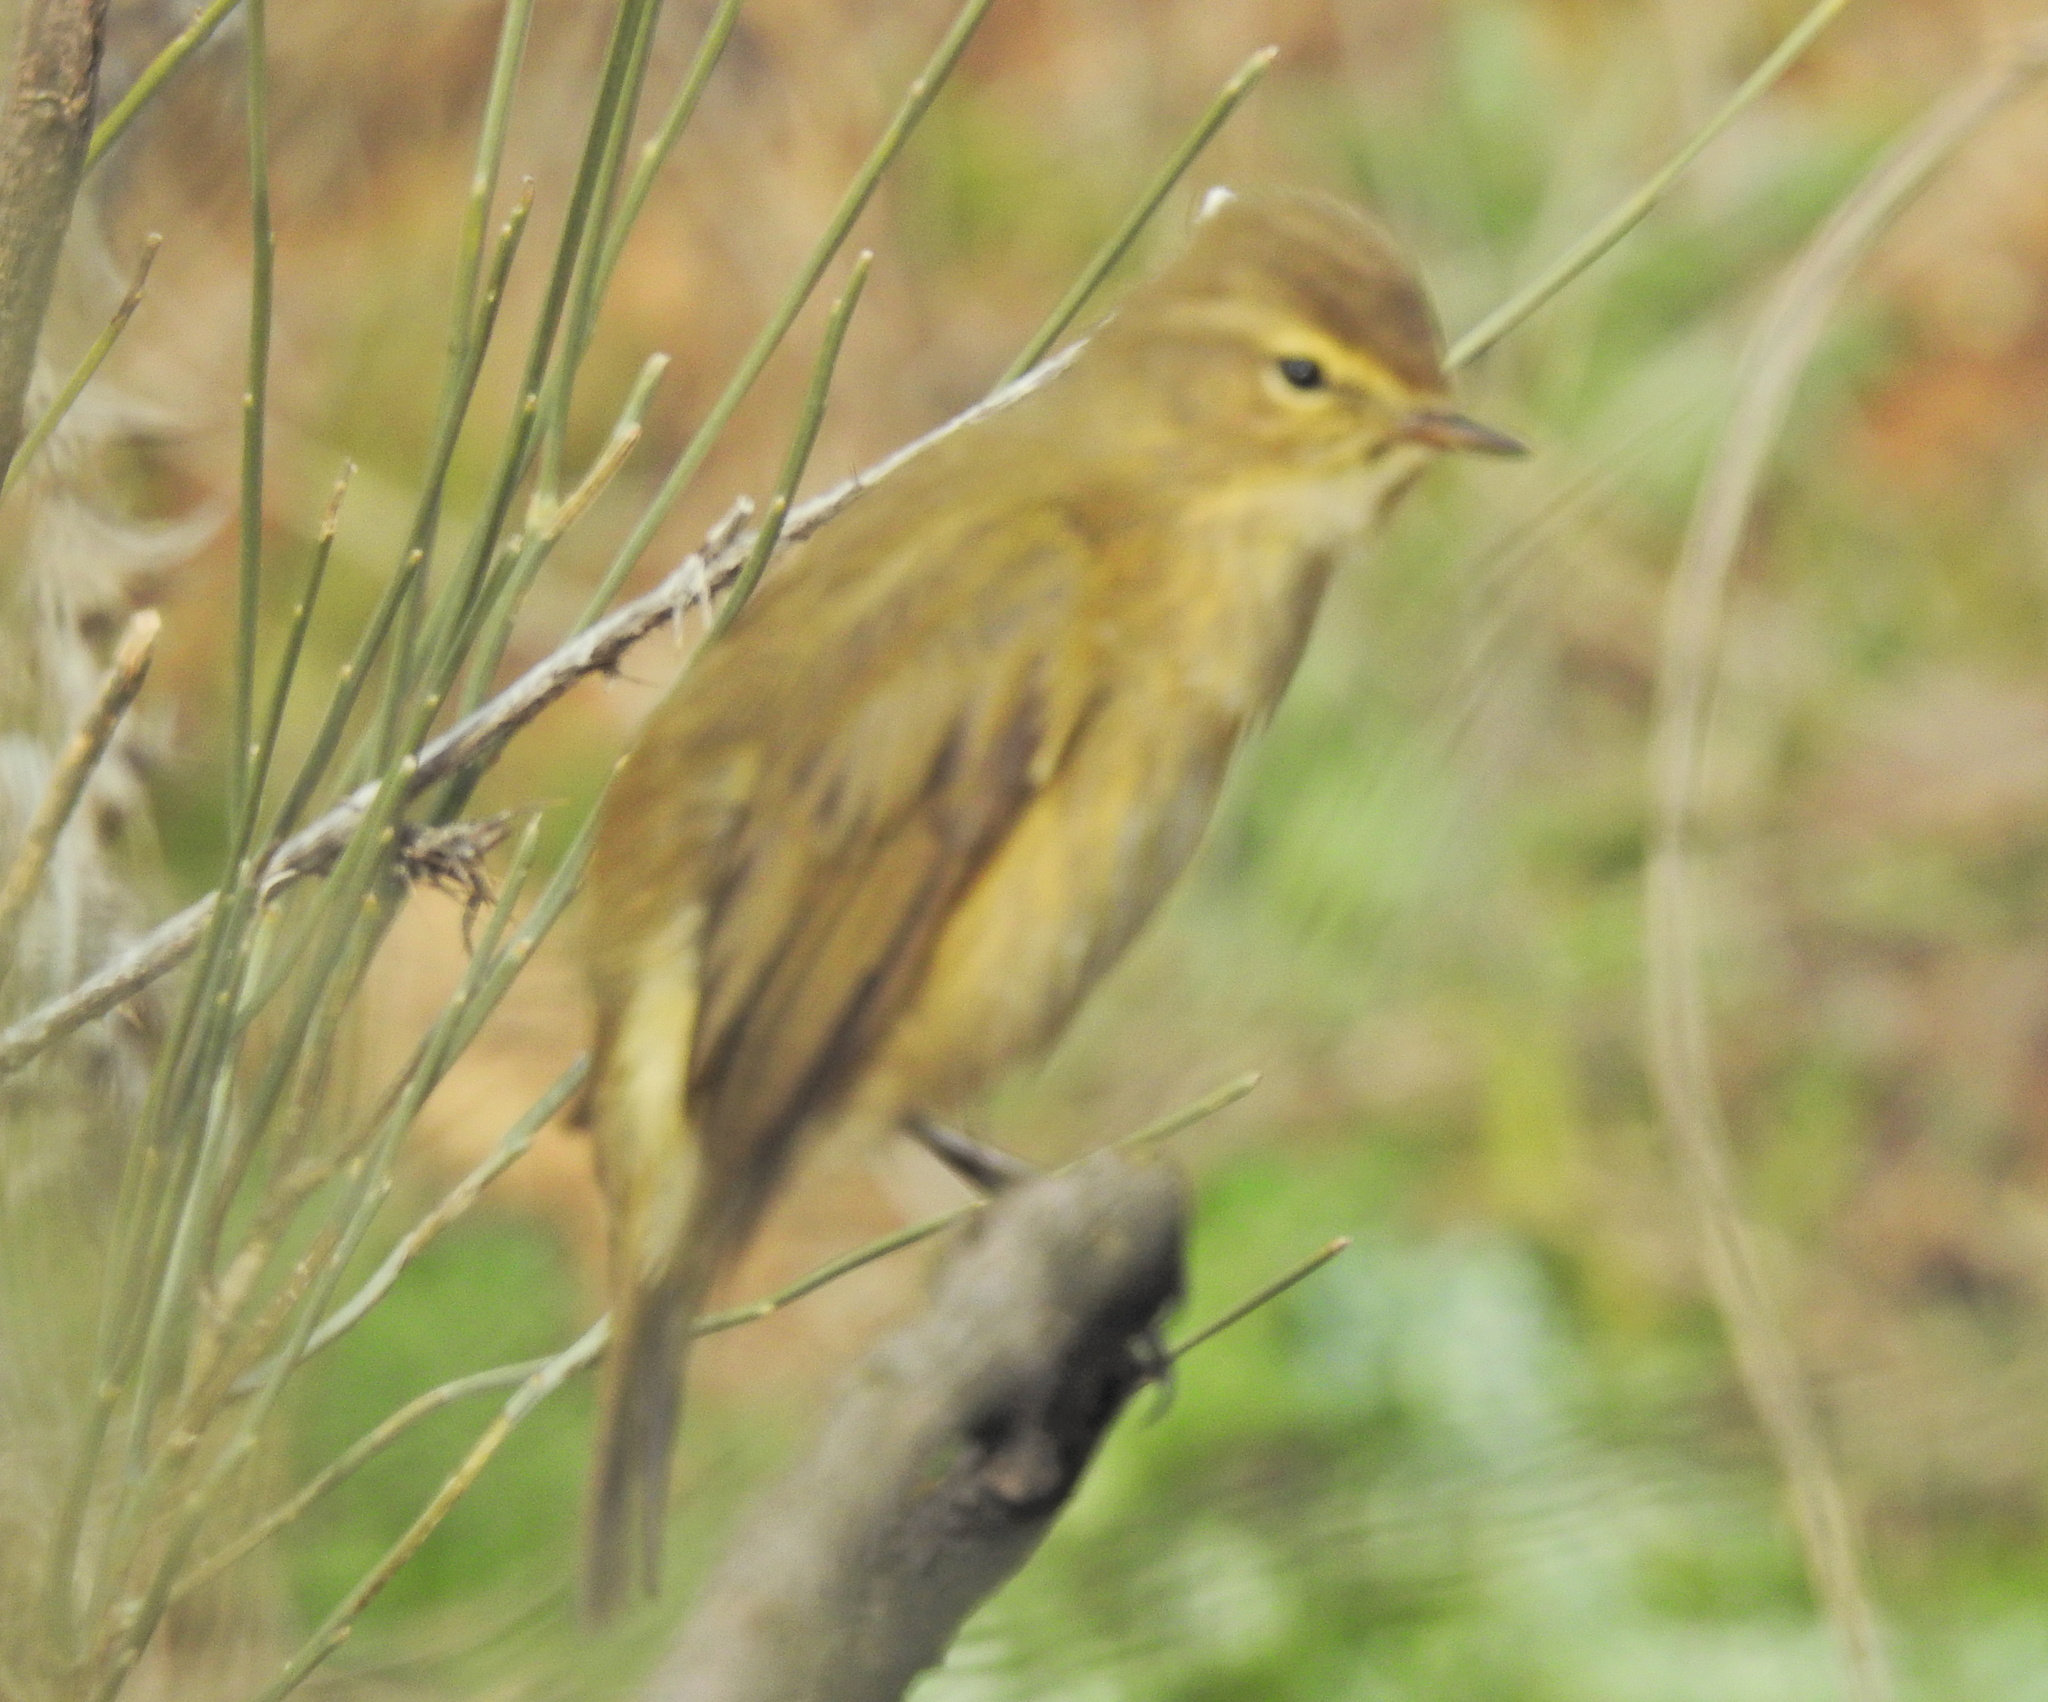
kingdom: Animalia
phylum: Chordata
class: Aves
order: Passeriformes
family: Phylloscopidae
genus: Phylloscopus
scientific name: Phylloscopus collybita
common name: Common chiffchaff
